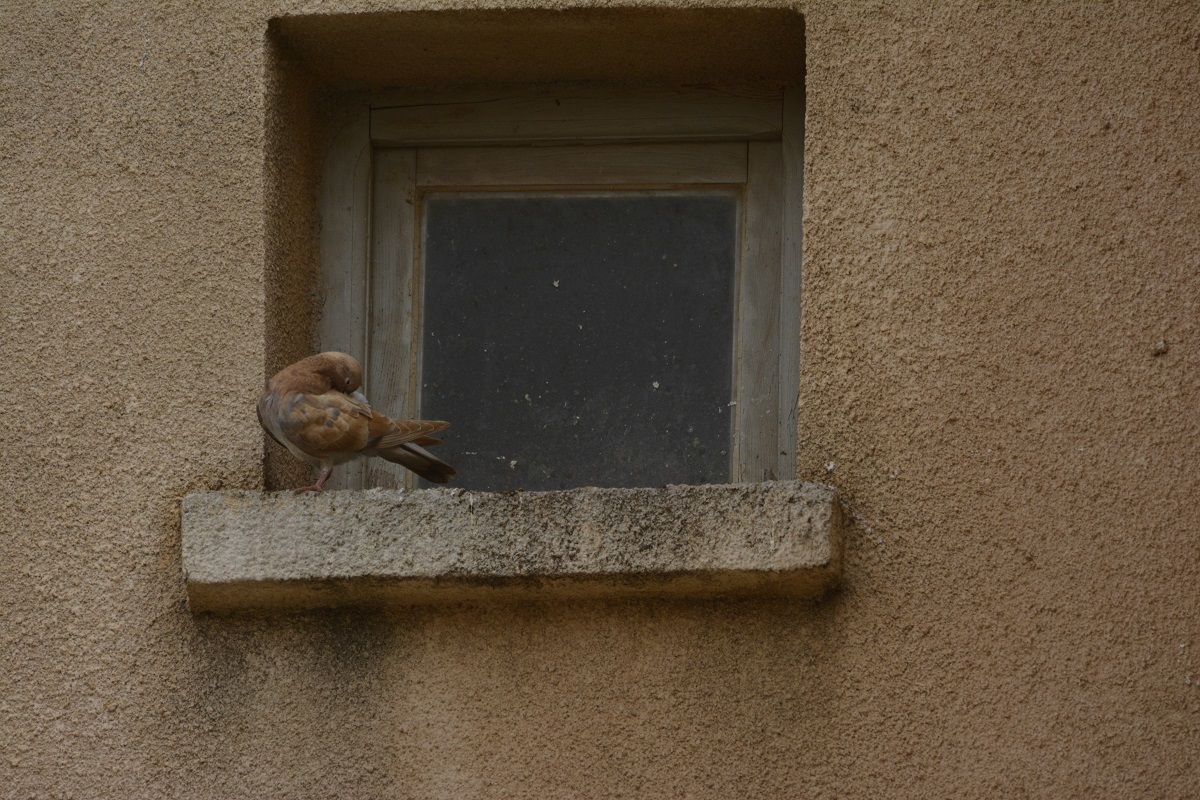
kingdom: Animalia
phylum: Chordata
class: Aves
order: Columbiformes
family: Columbidae
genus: Columba
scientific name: Columba livia
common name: Rock pigeon
